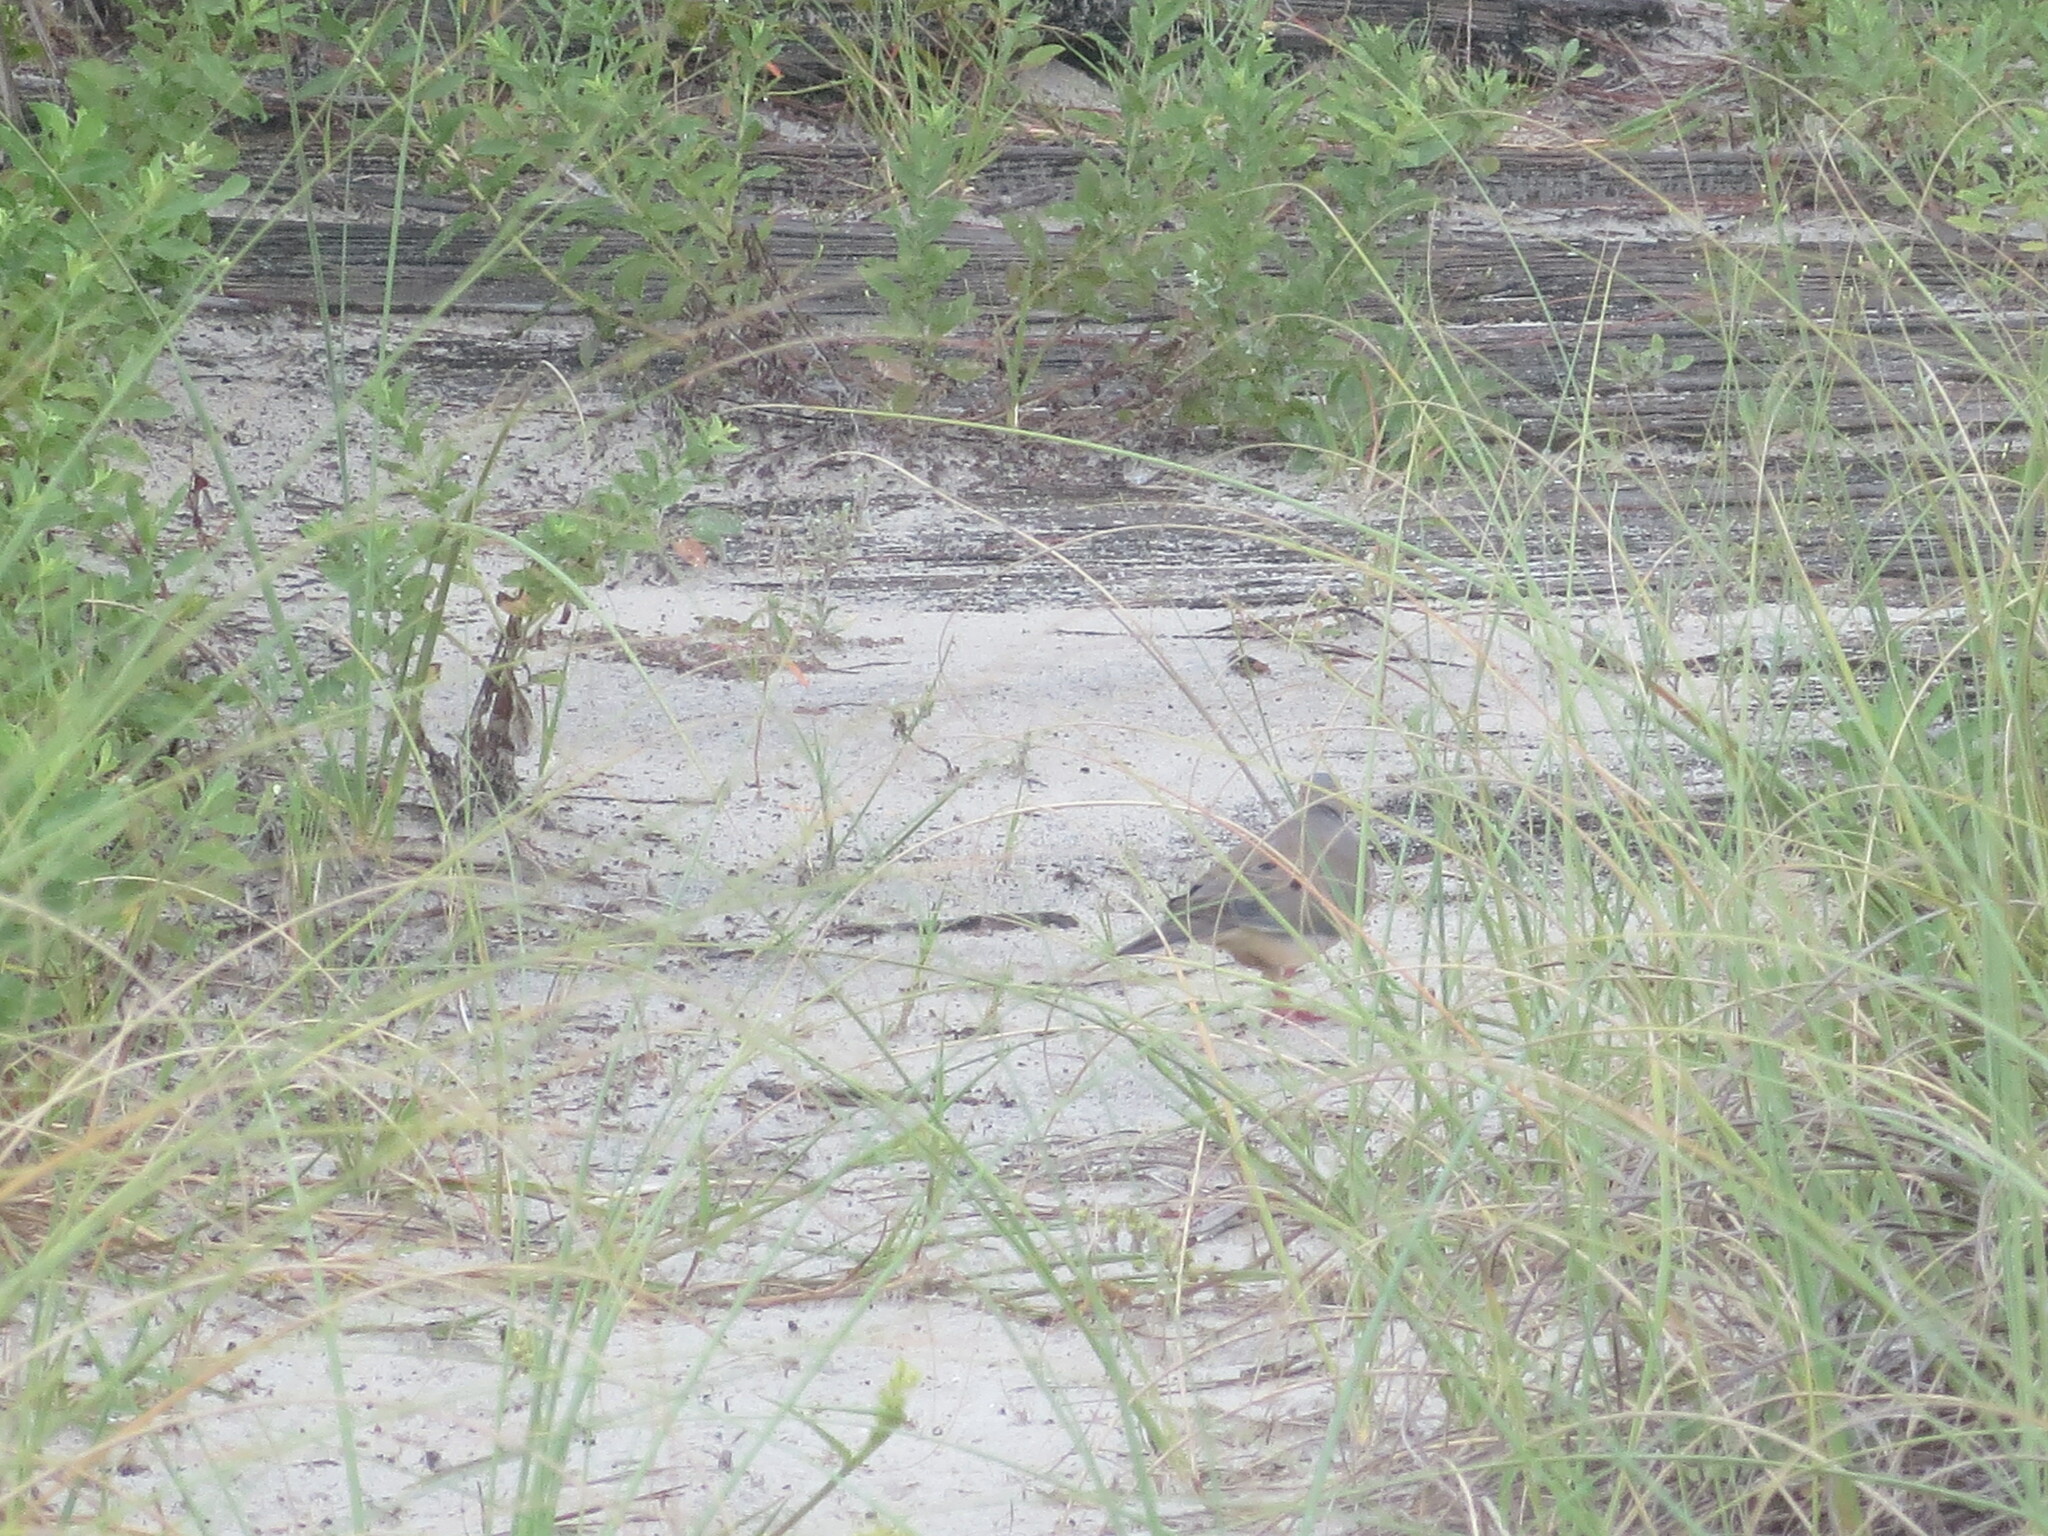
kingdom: Animalia
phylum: Chordata
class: Aves
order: Columbiformes
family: Columbidae
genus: Zenaida
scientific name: Zenaida macroura
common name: Mourning dove
